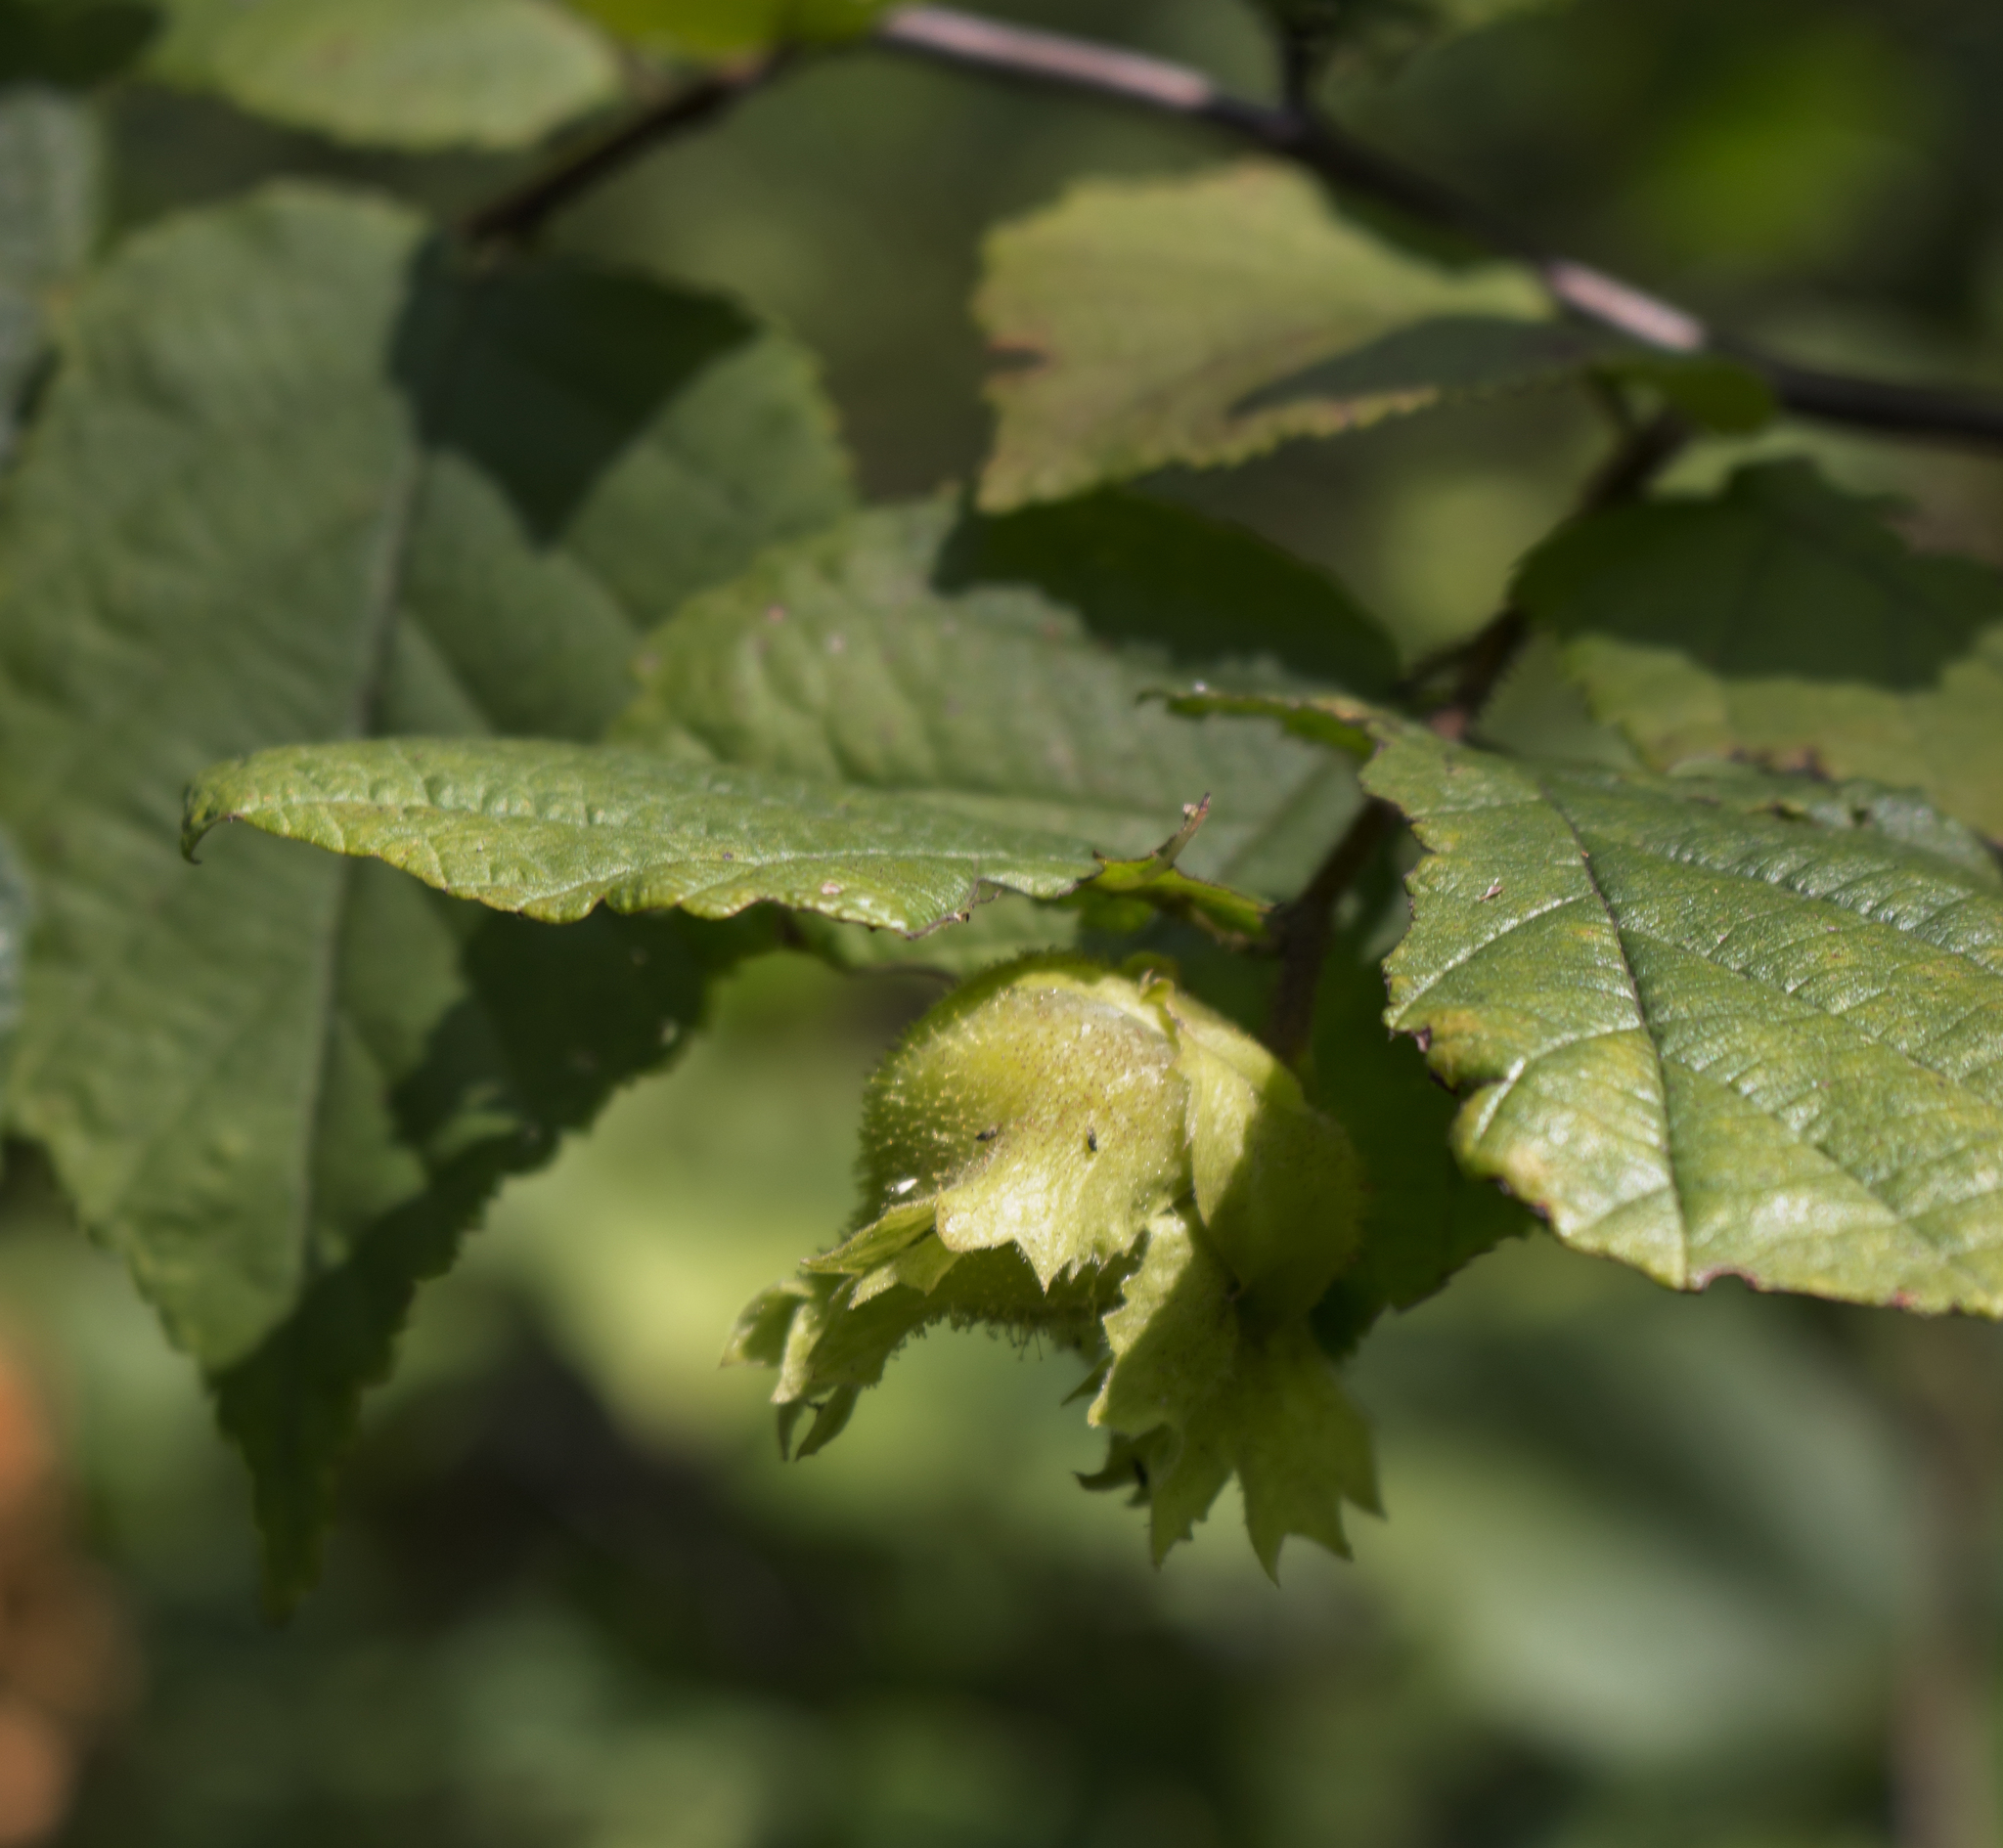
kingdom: Plantae
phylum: Tracheophyta
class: Magnoliopsida
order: Fagales
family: Betulaceae
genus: Corylus
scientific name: Corylus americana
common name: American hazel
